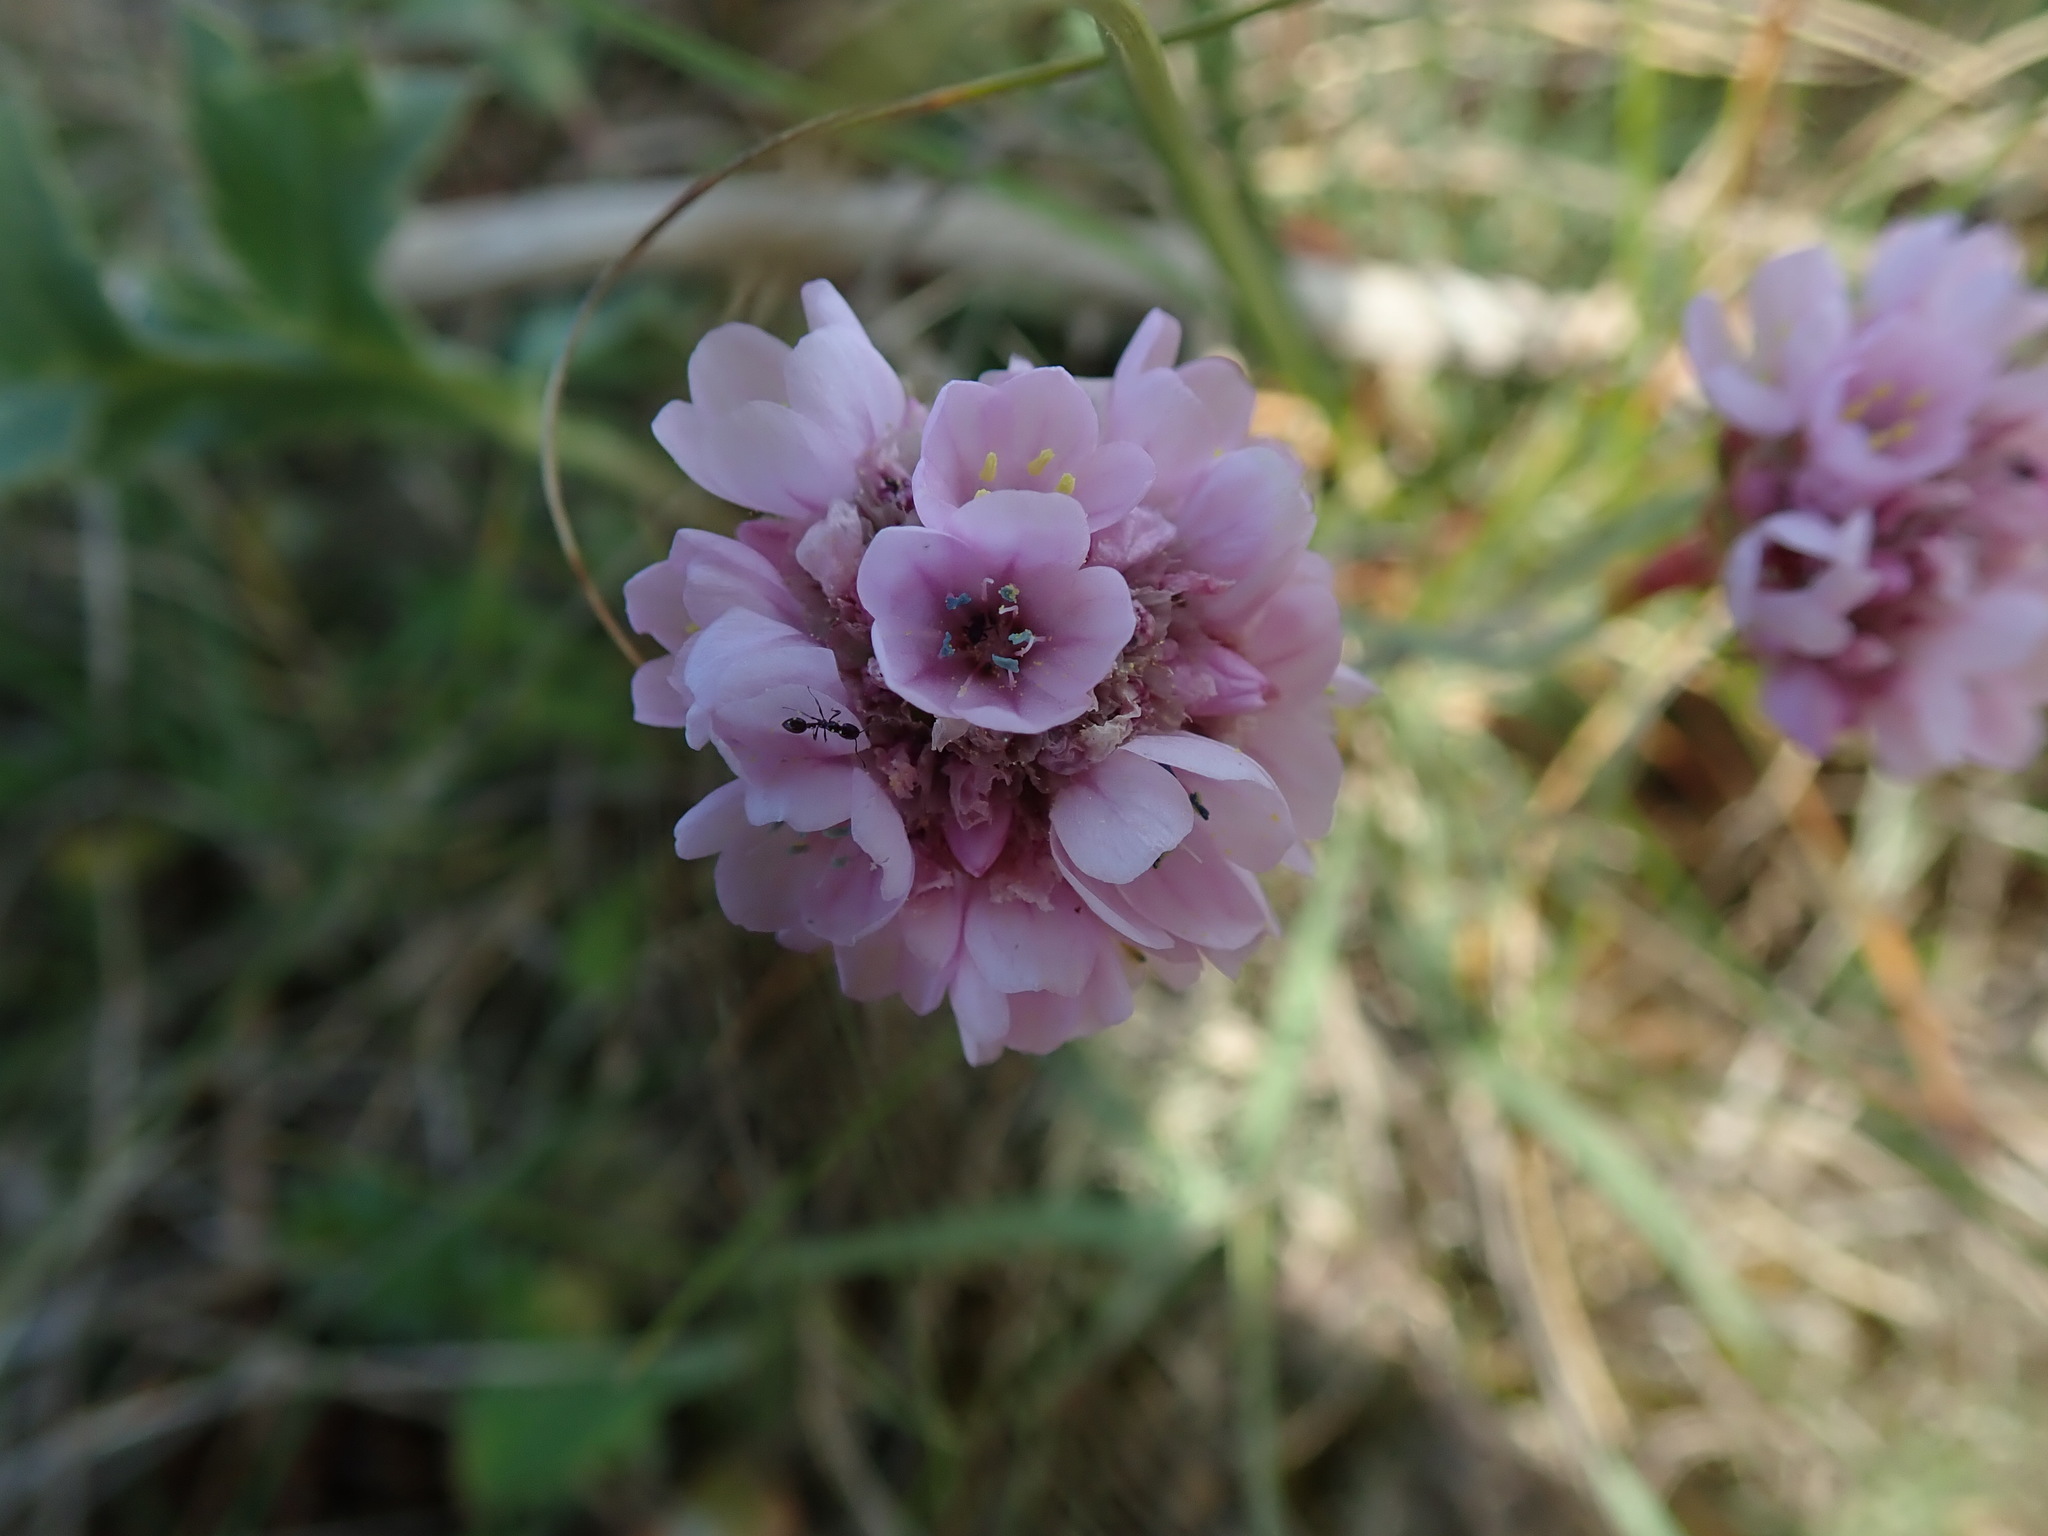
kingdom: Plantae
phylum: Tracheophyta
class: Magnoliopsida
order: Caryophyllales
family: Plumbaginaceae
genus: Armeria
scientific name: Armeria maritima
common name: Thrift
